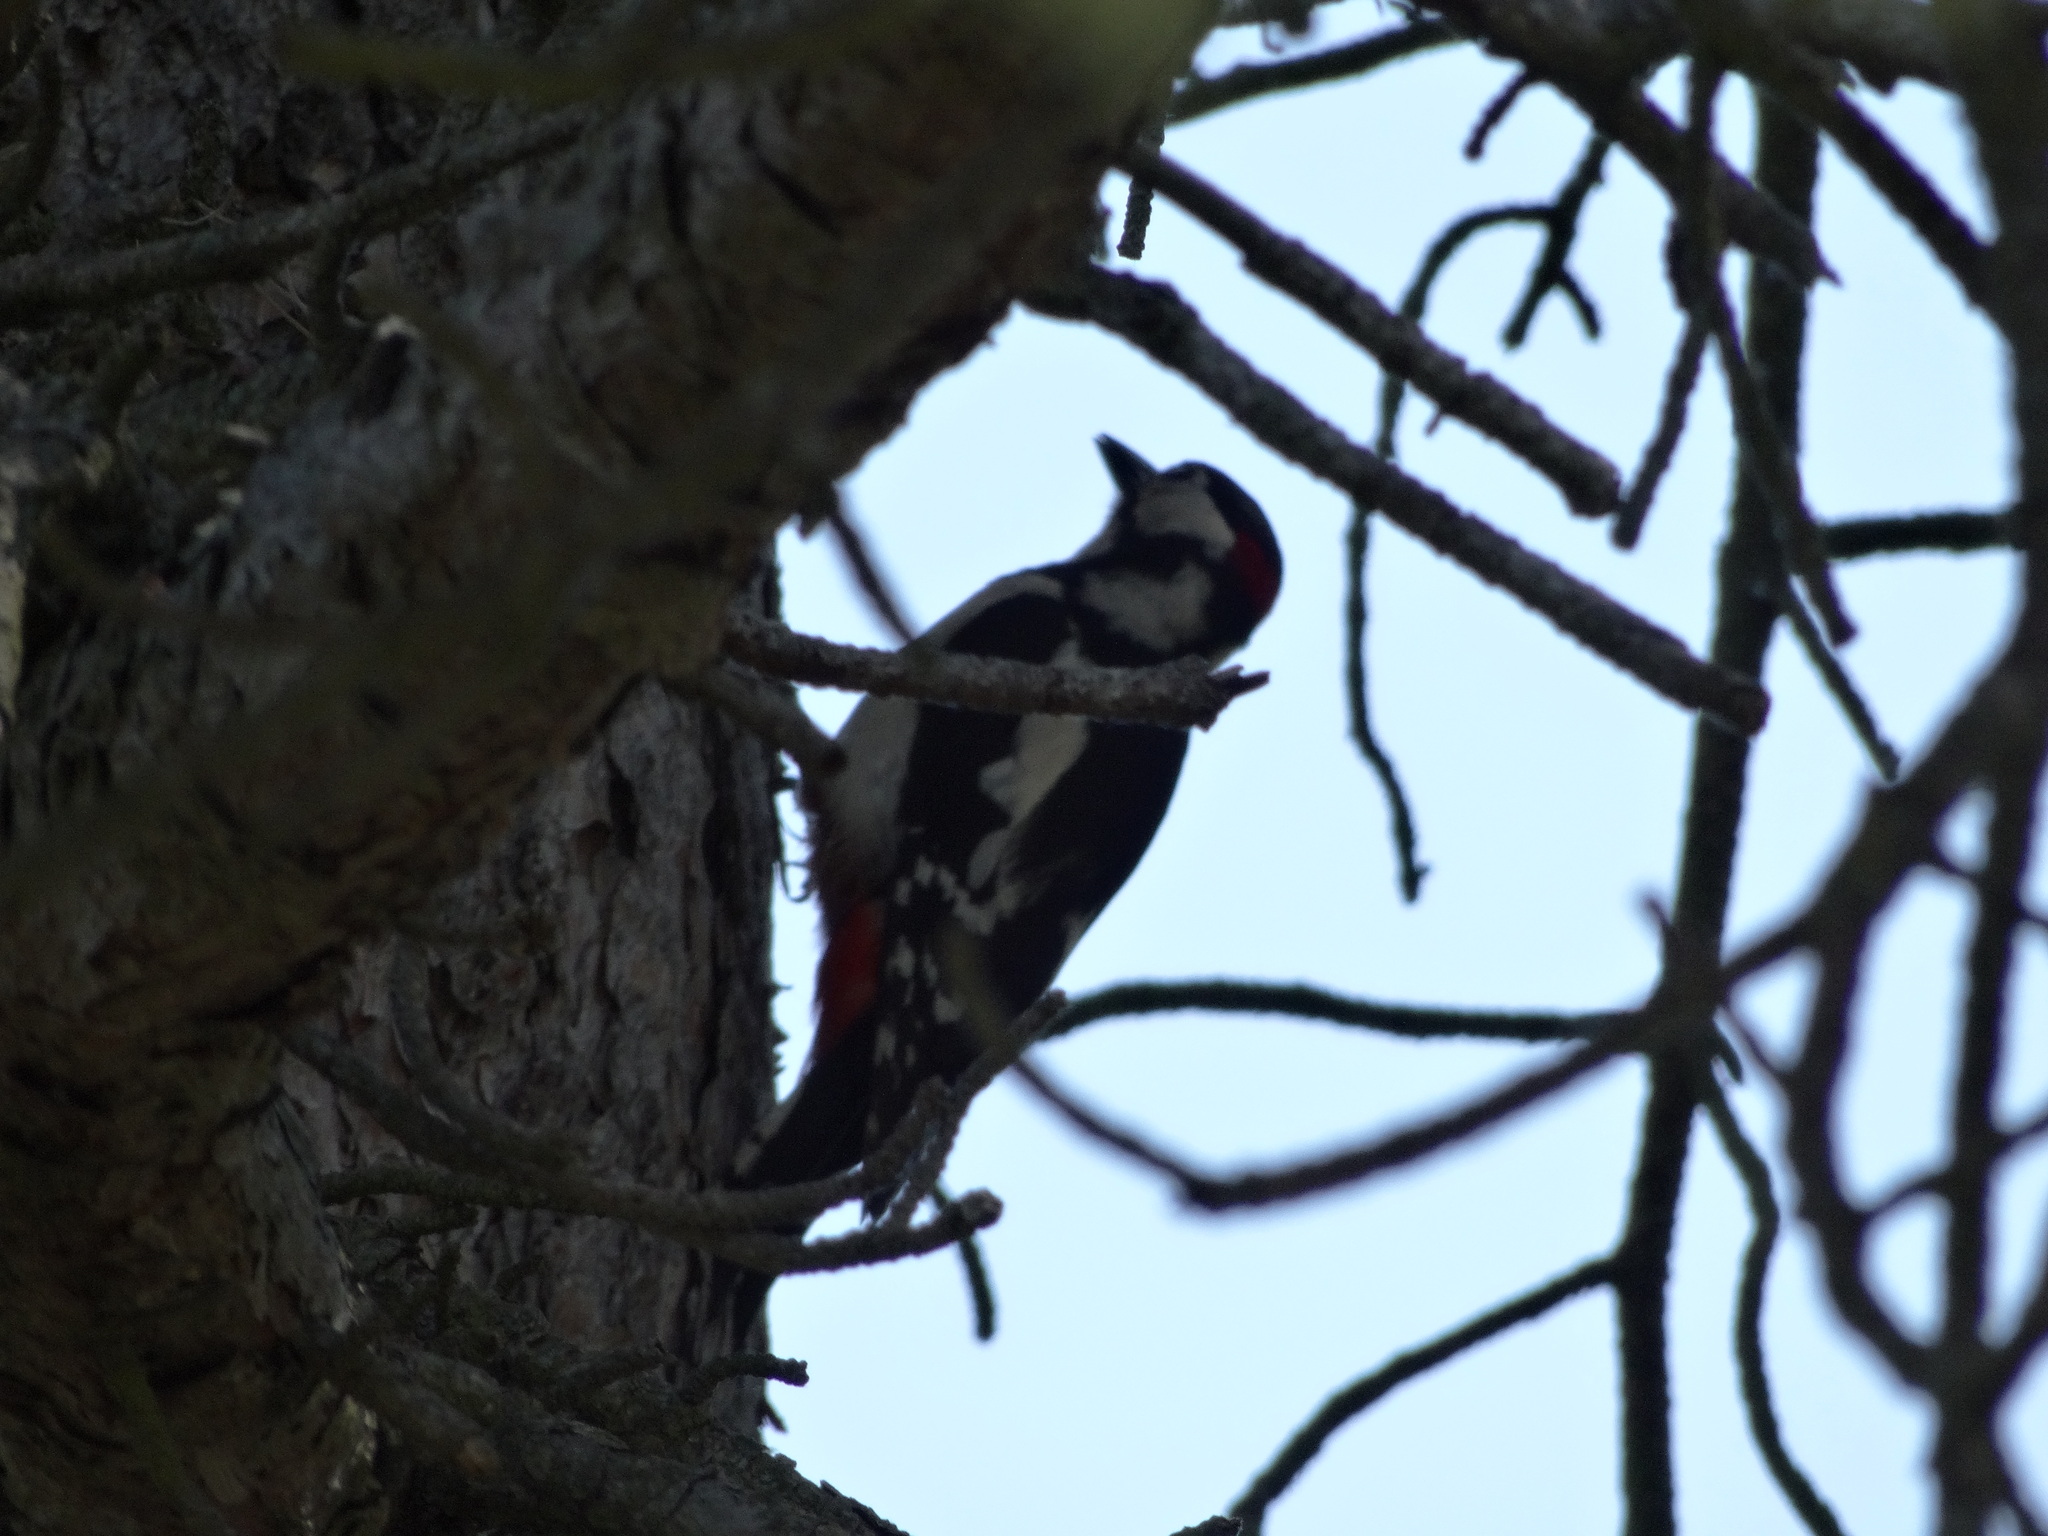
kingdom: Animalia
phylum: Chordata
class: Aves
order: Piciformes
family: Picidae
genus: Dendrocopos
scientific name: Dendrocopos major
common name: Great spotted woodpecker
